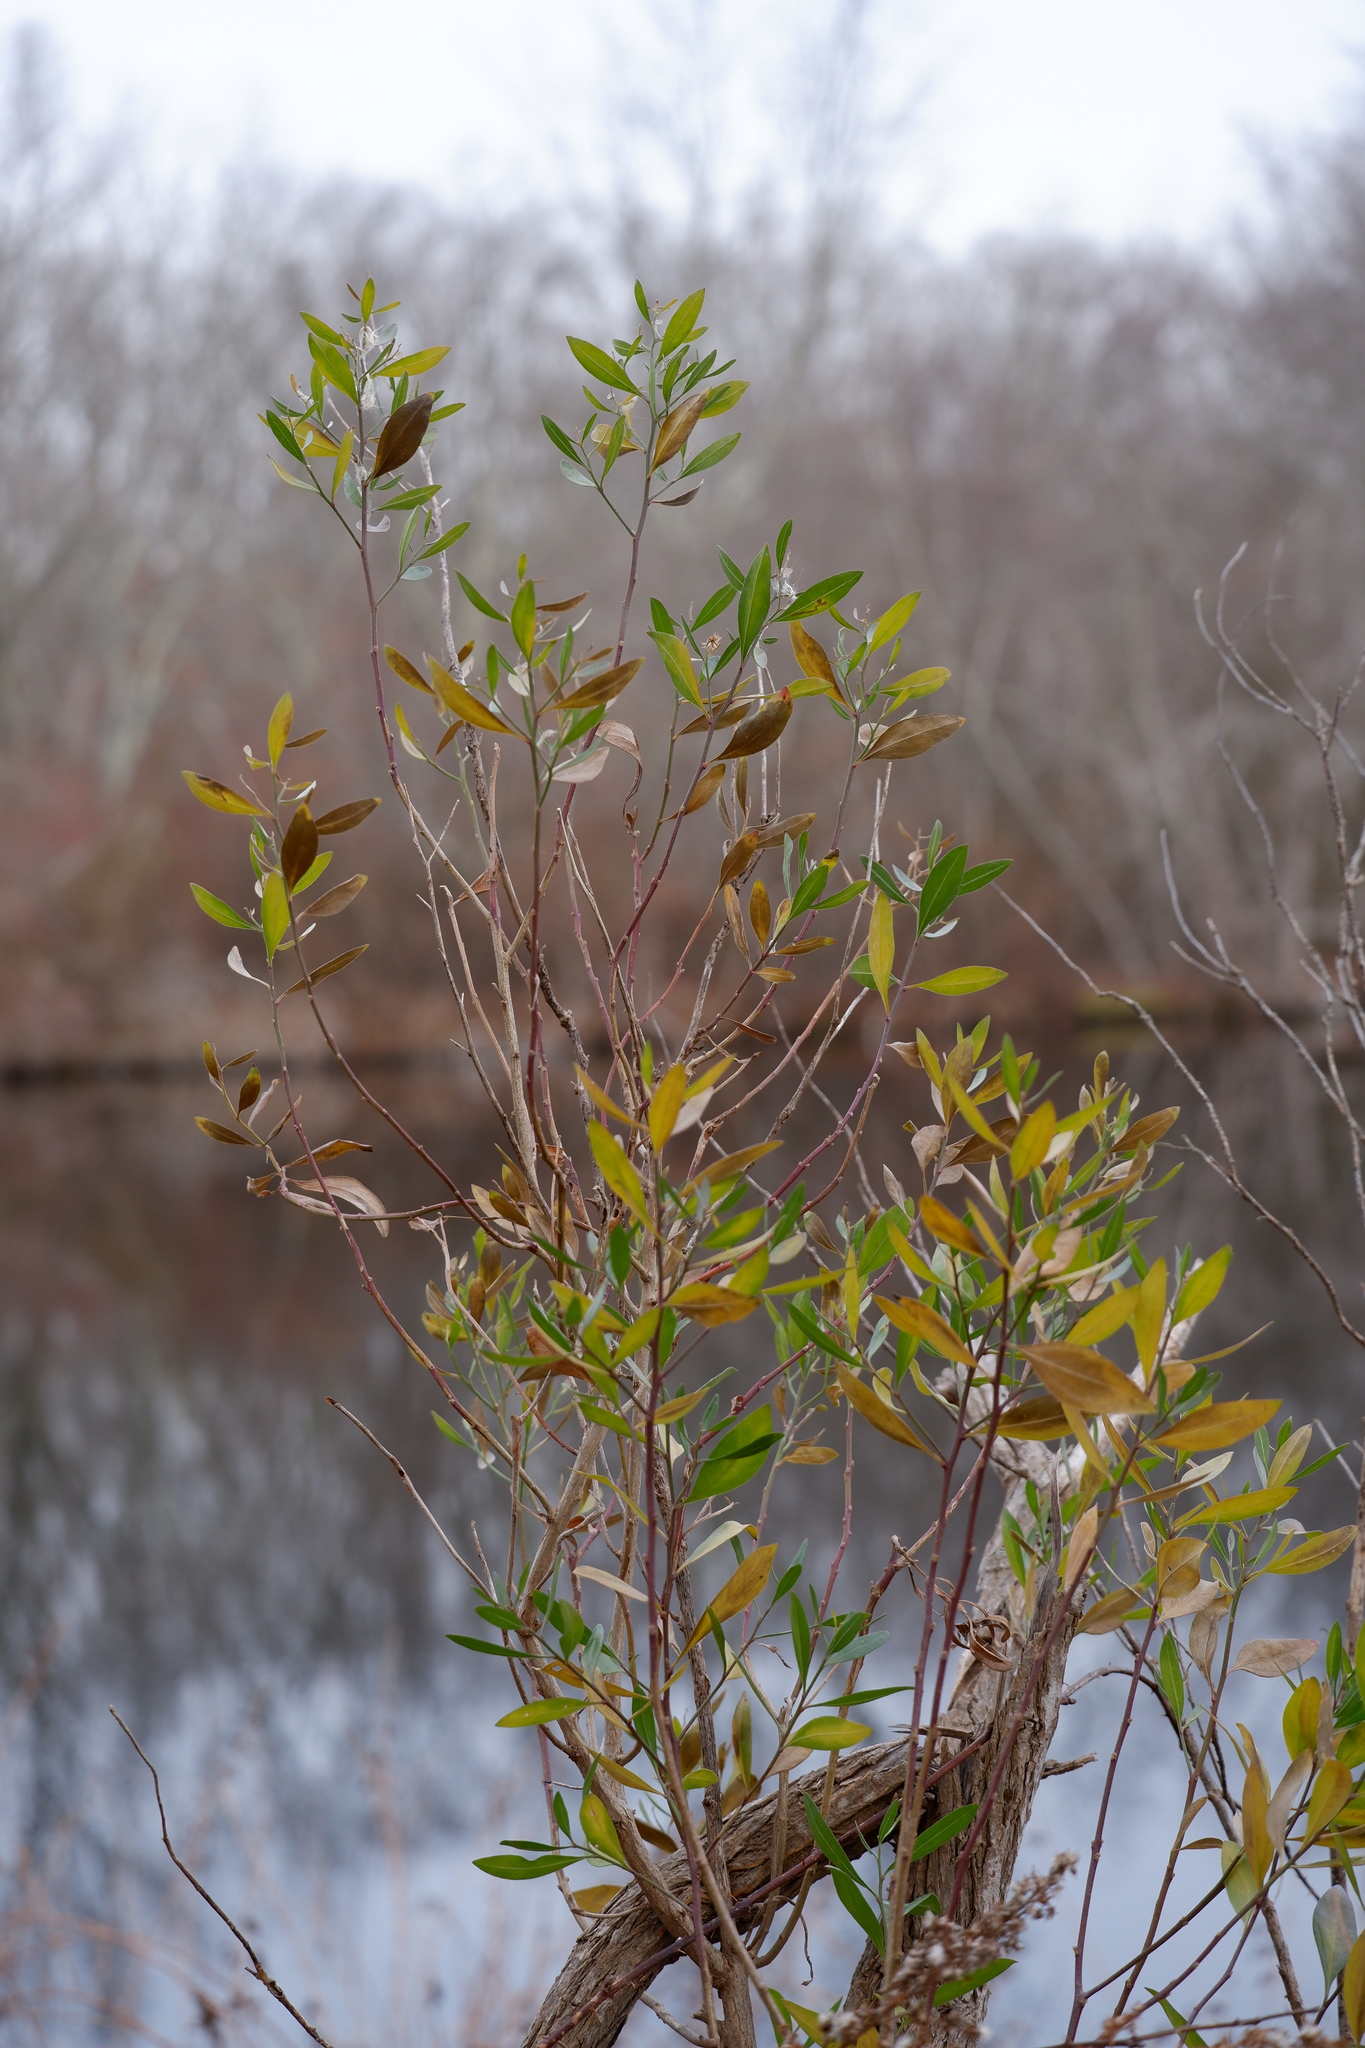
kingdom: Plantae
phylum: Tracheophyta
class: Magnoliopsida
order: Asterales
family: Asteraceae
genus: Baccharis
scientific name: Baccharis halimifolia
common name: Eastern baccharis
